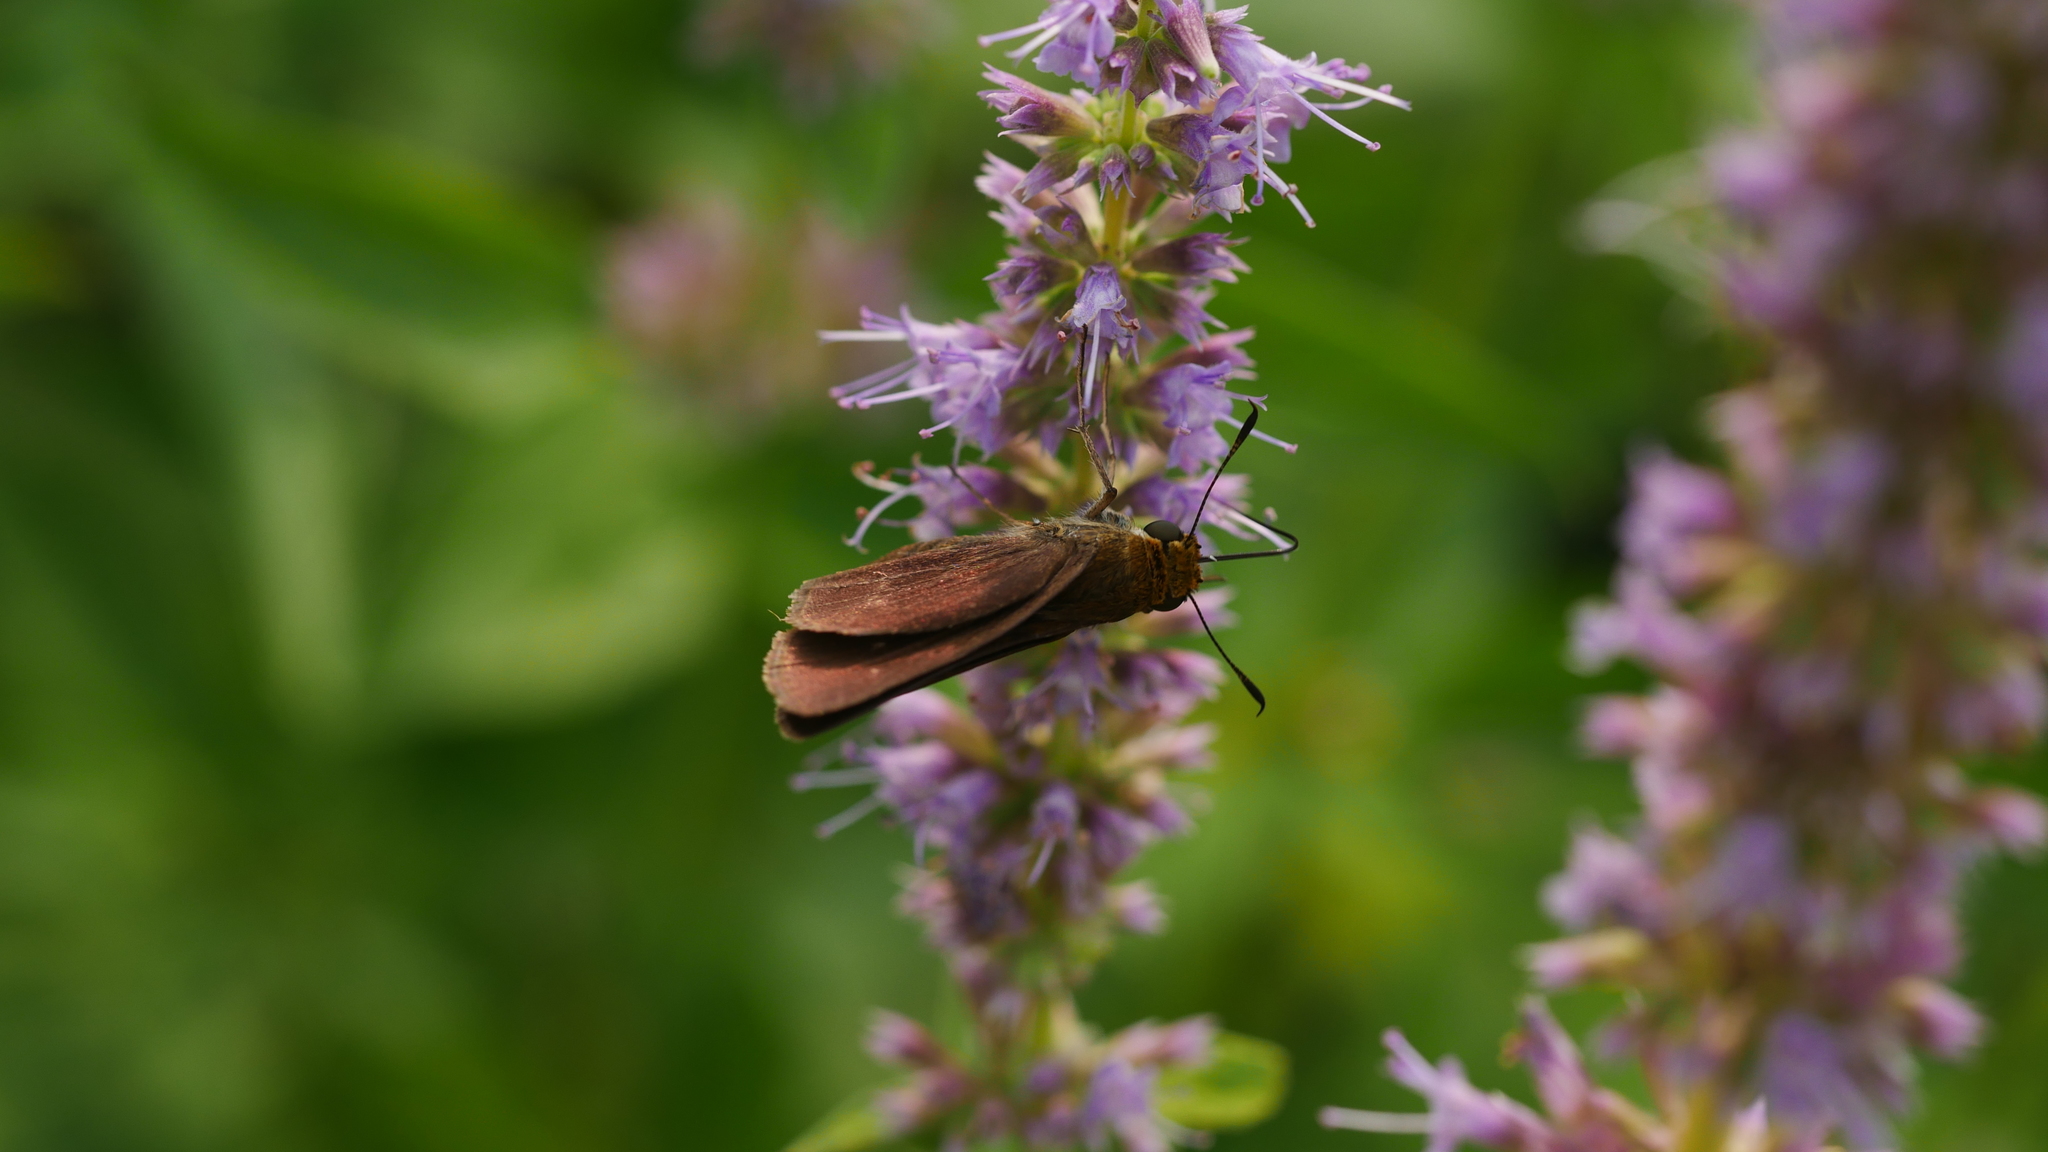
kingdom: Animalia
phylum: Arthropoda
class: Insecta
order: Lepidoptera
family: Hesperiidae
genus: Euphyes
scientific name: Euphyes vestris
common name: Dun skipper
